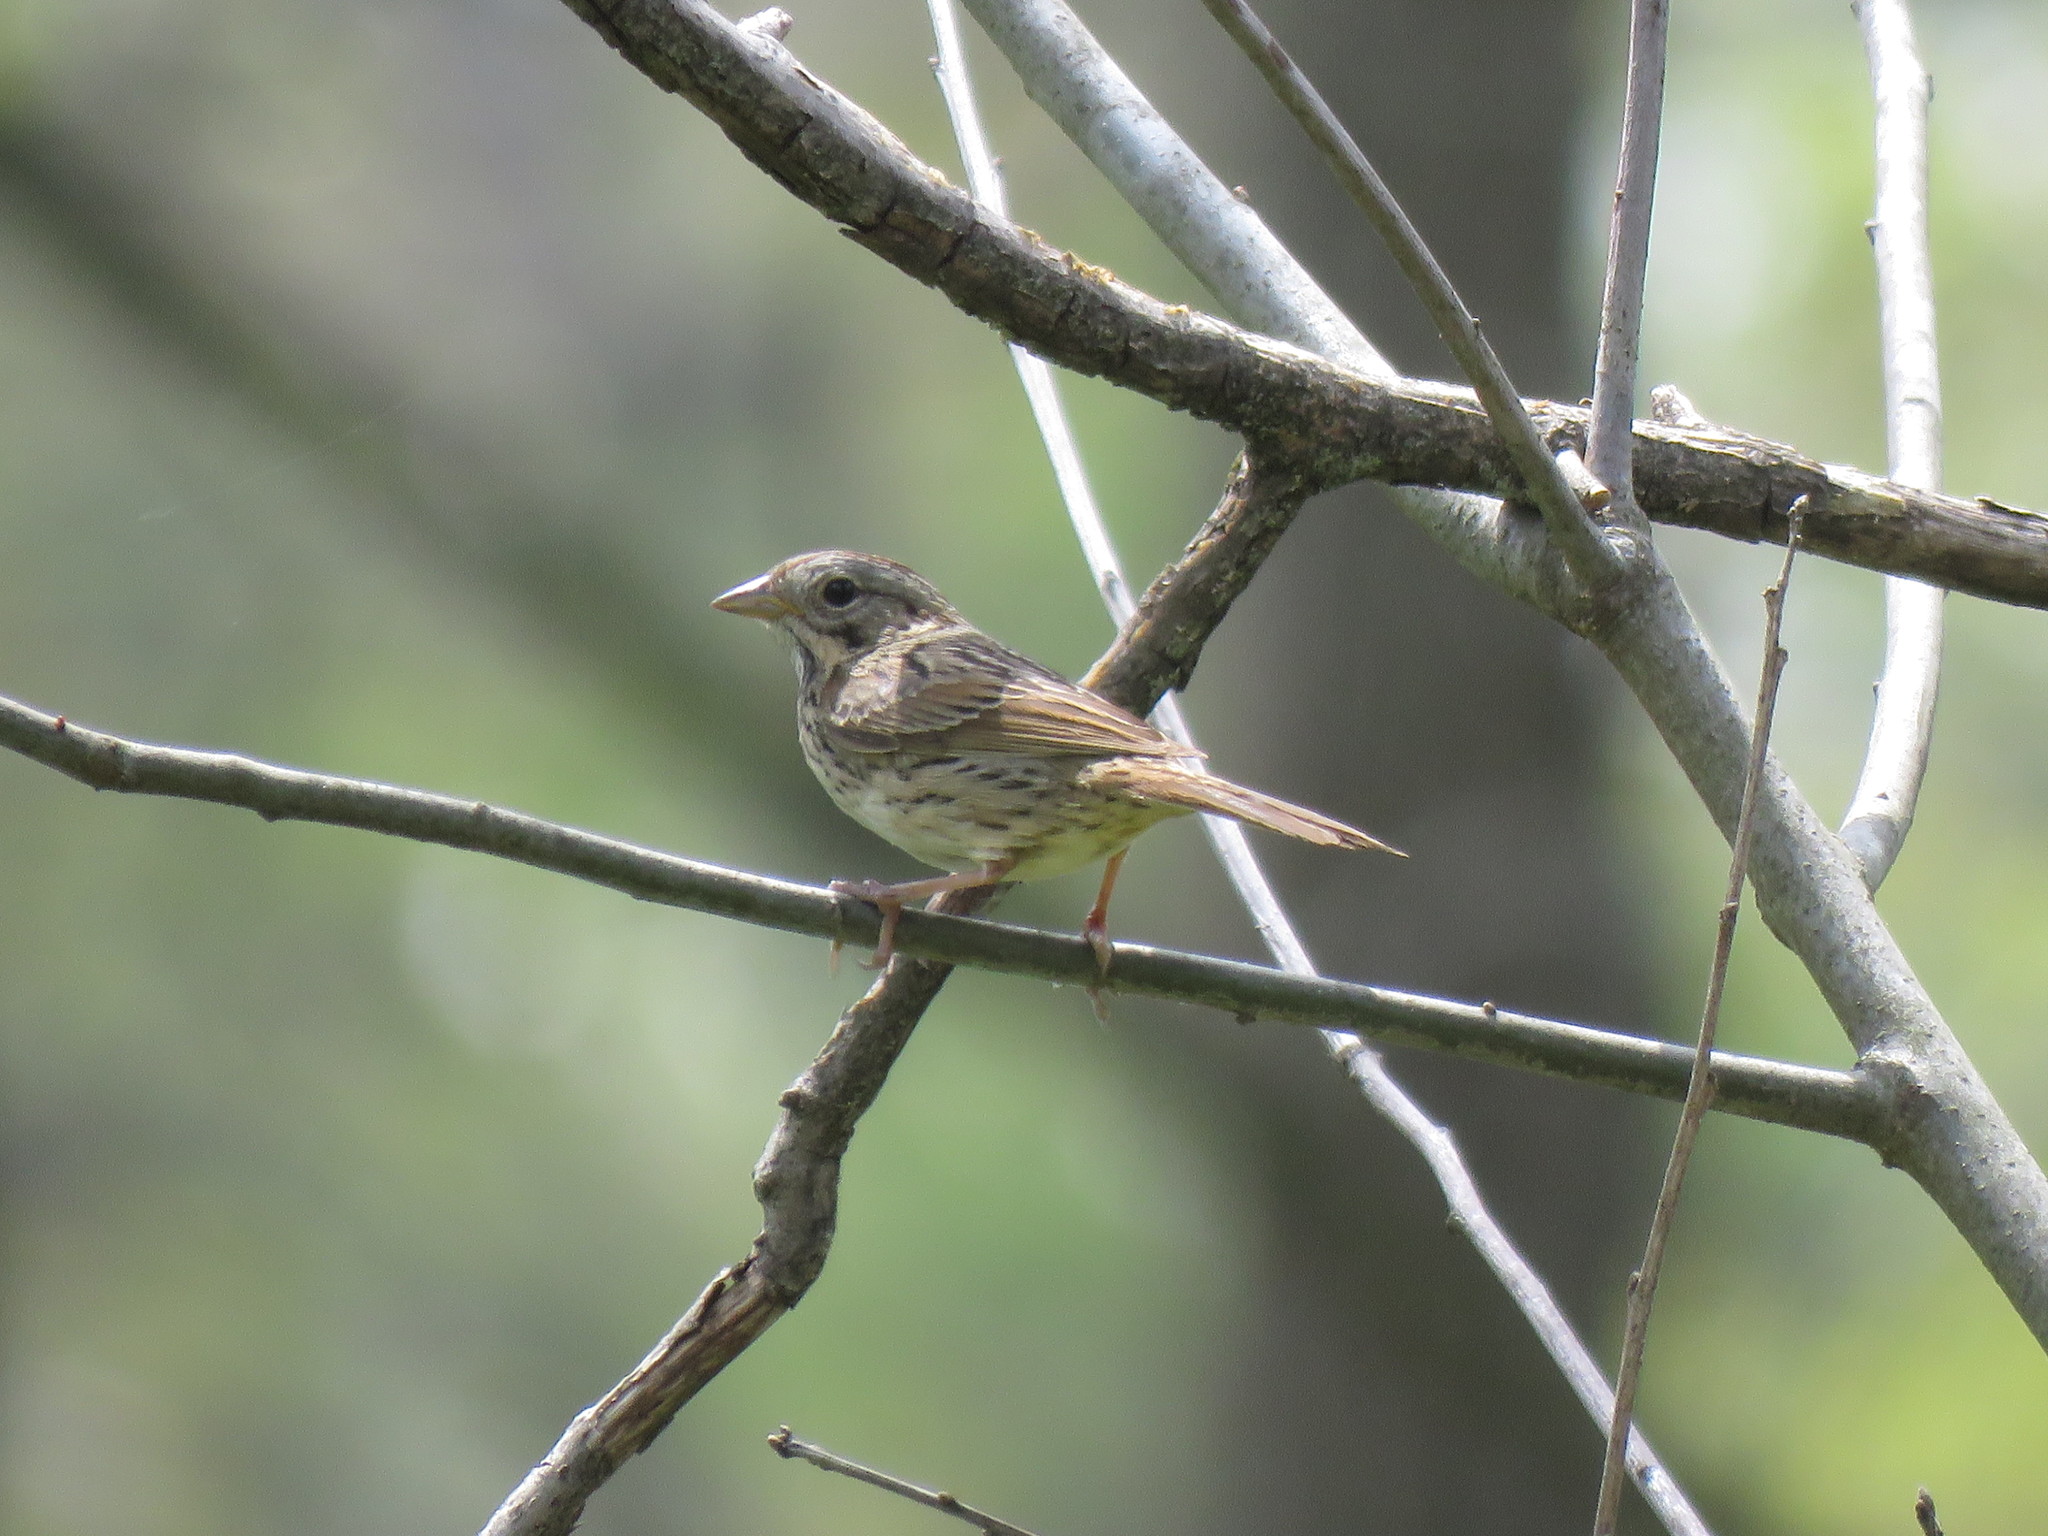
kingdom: Animalia
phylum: Chordata
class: Aves
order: Passeriformes
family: Passerellidae
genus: Melospiza
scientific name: Melospiza melodia
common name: Song sparrow
